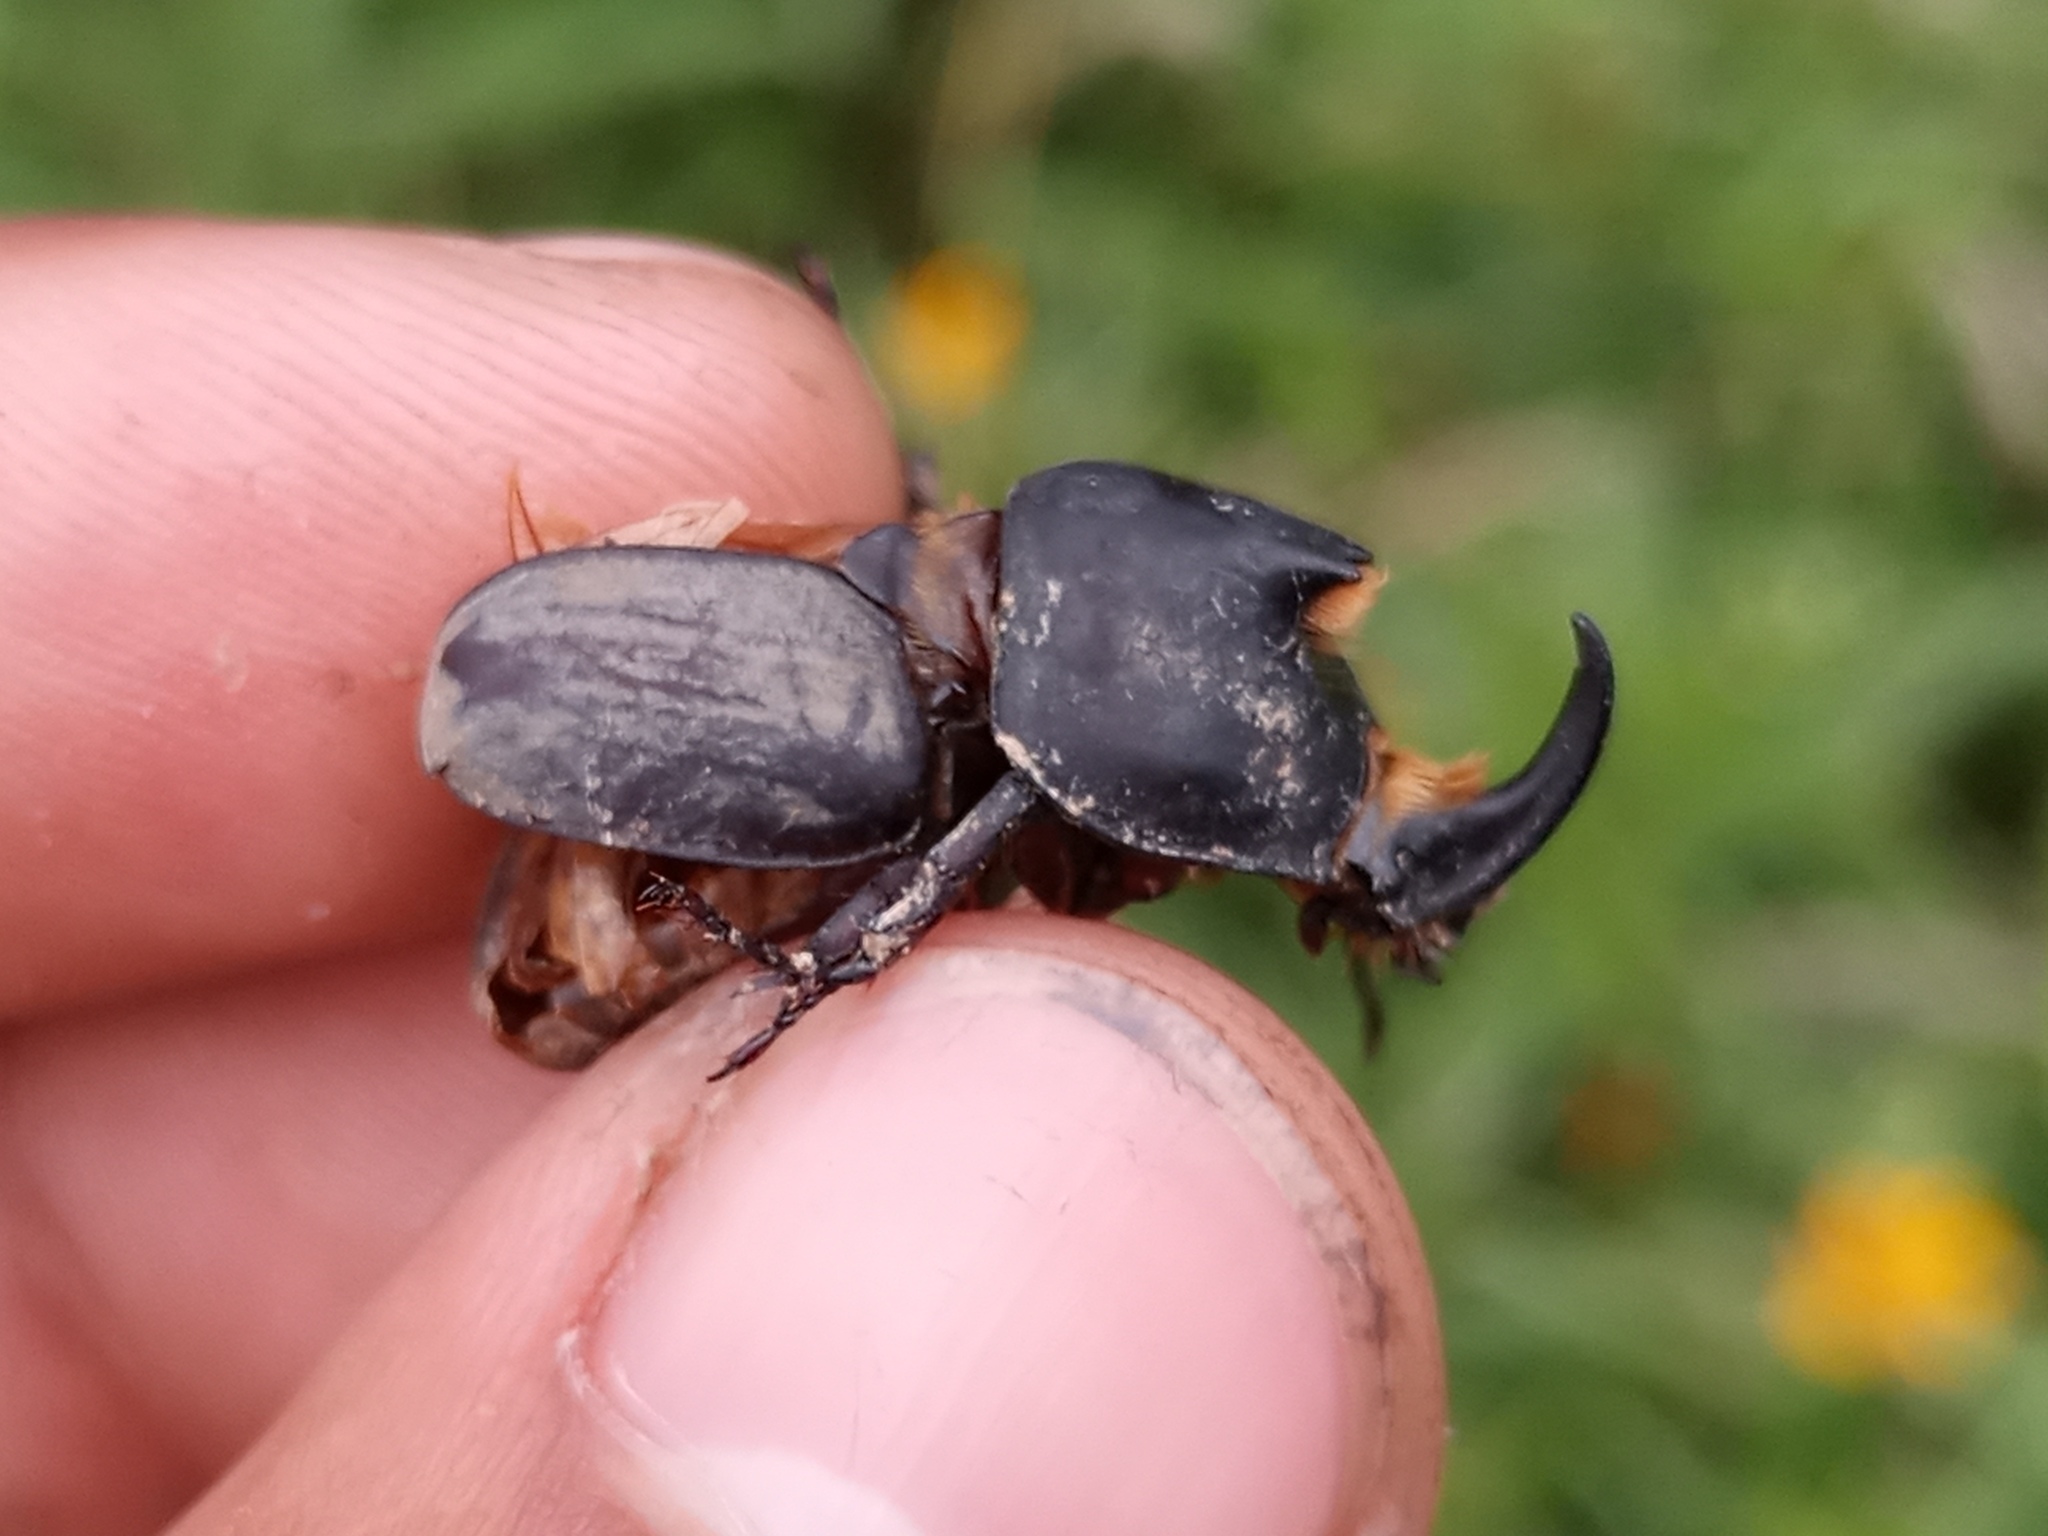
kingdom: Animalia
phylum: Arthropoda
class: Insecta
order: Coleoptera
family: Scarabaeidae
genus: Diloboderus
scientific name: Diloboderus abderus
